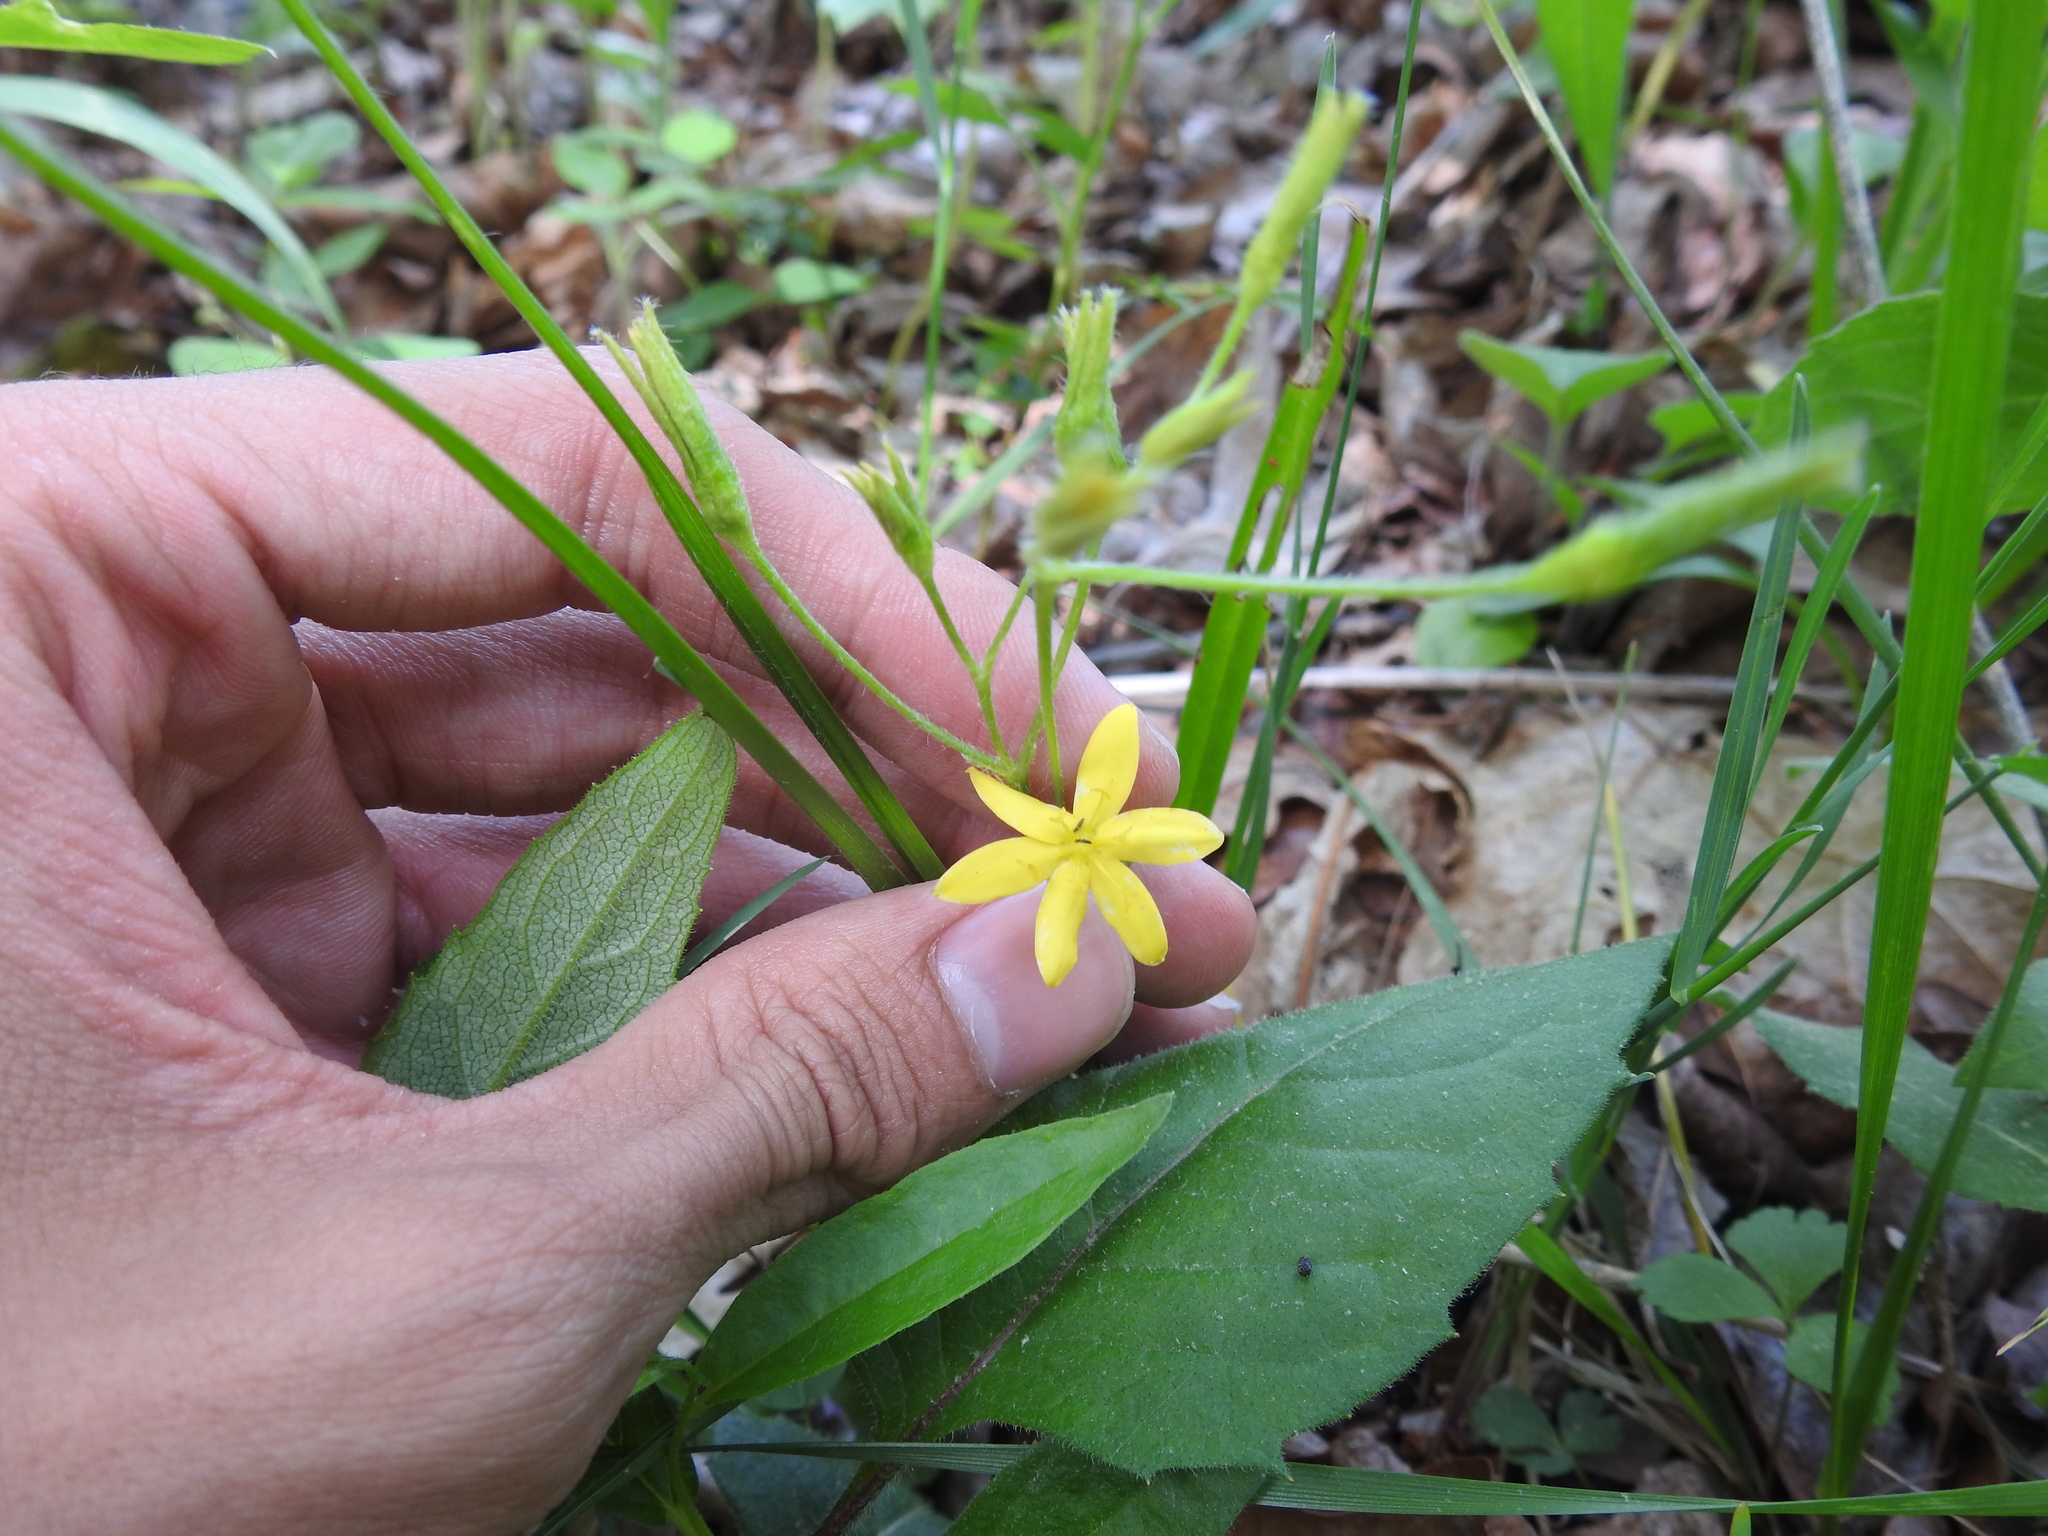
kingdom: Plantae
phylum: Tracheophyta
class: Liliopsida
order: Asparagales
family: Hypoxidaceae
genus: Hypoxis
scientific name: Hypoxis hirsuta
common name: Common goldstar
